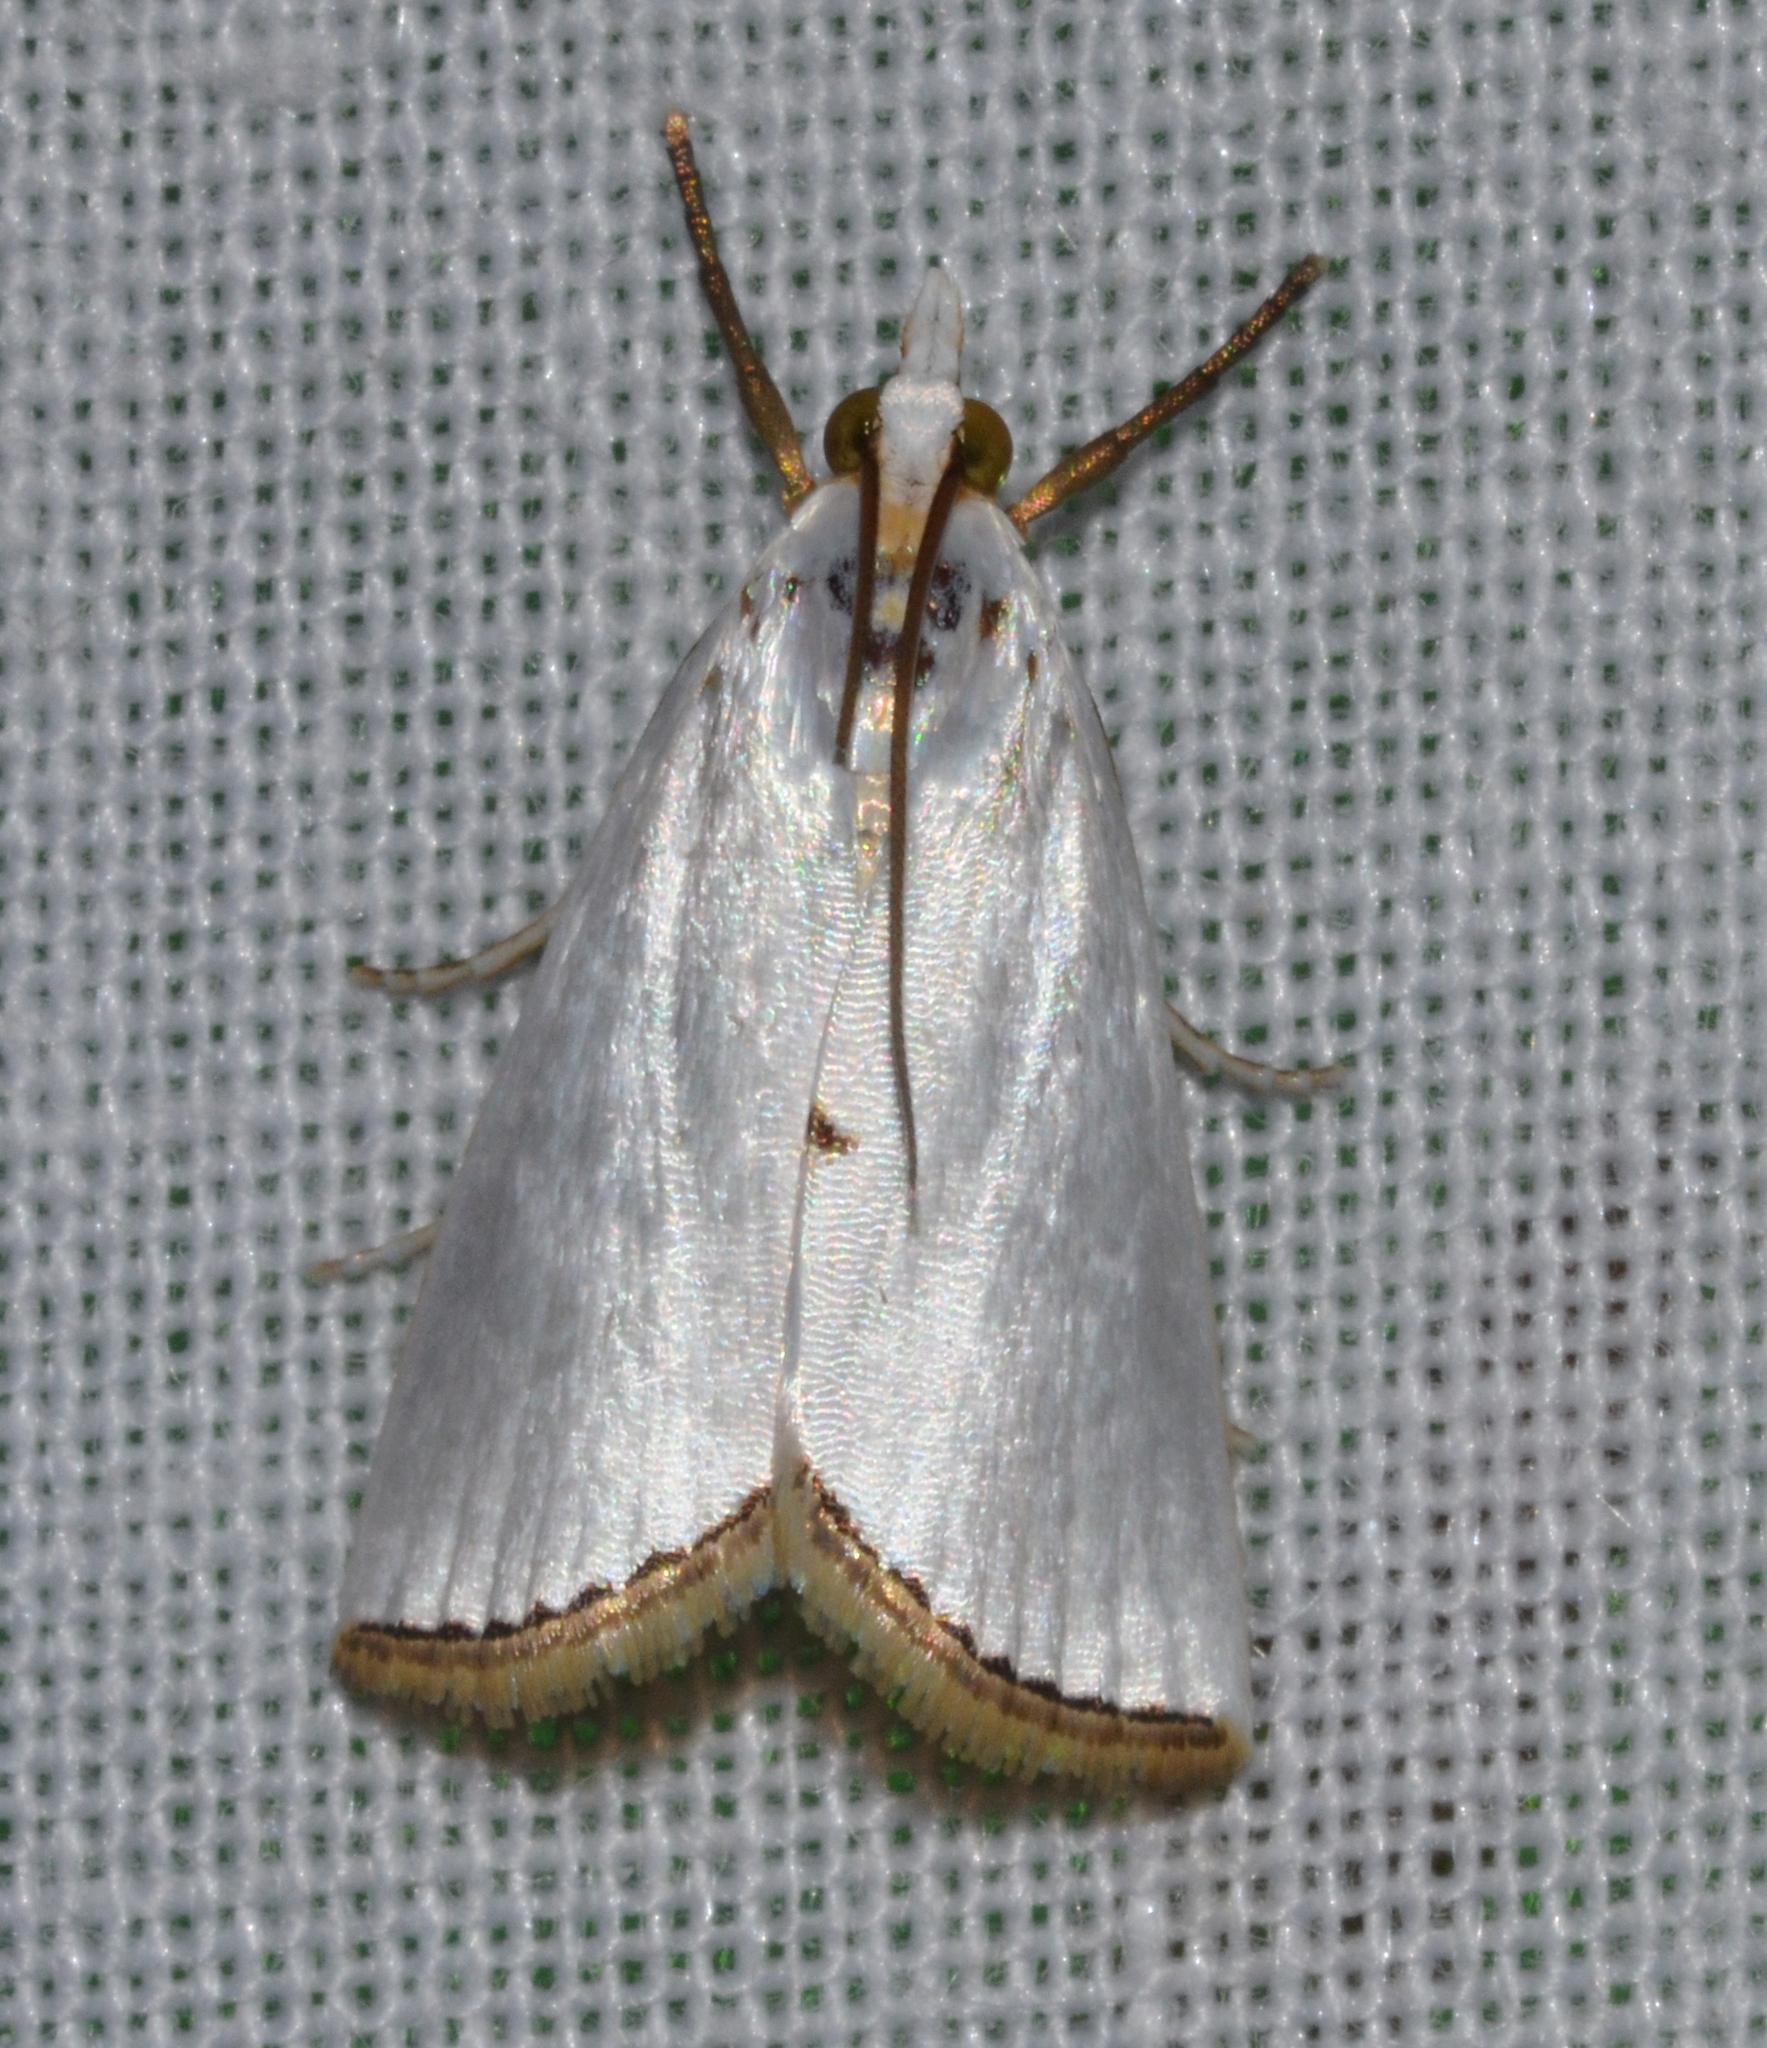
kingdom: Animalia
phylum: Arthropoda
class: Insecta
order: Lepidoptera
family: Crambidae
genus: Argyria
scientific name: Argyria nivalis
